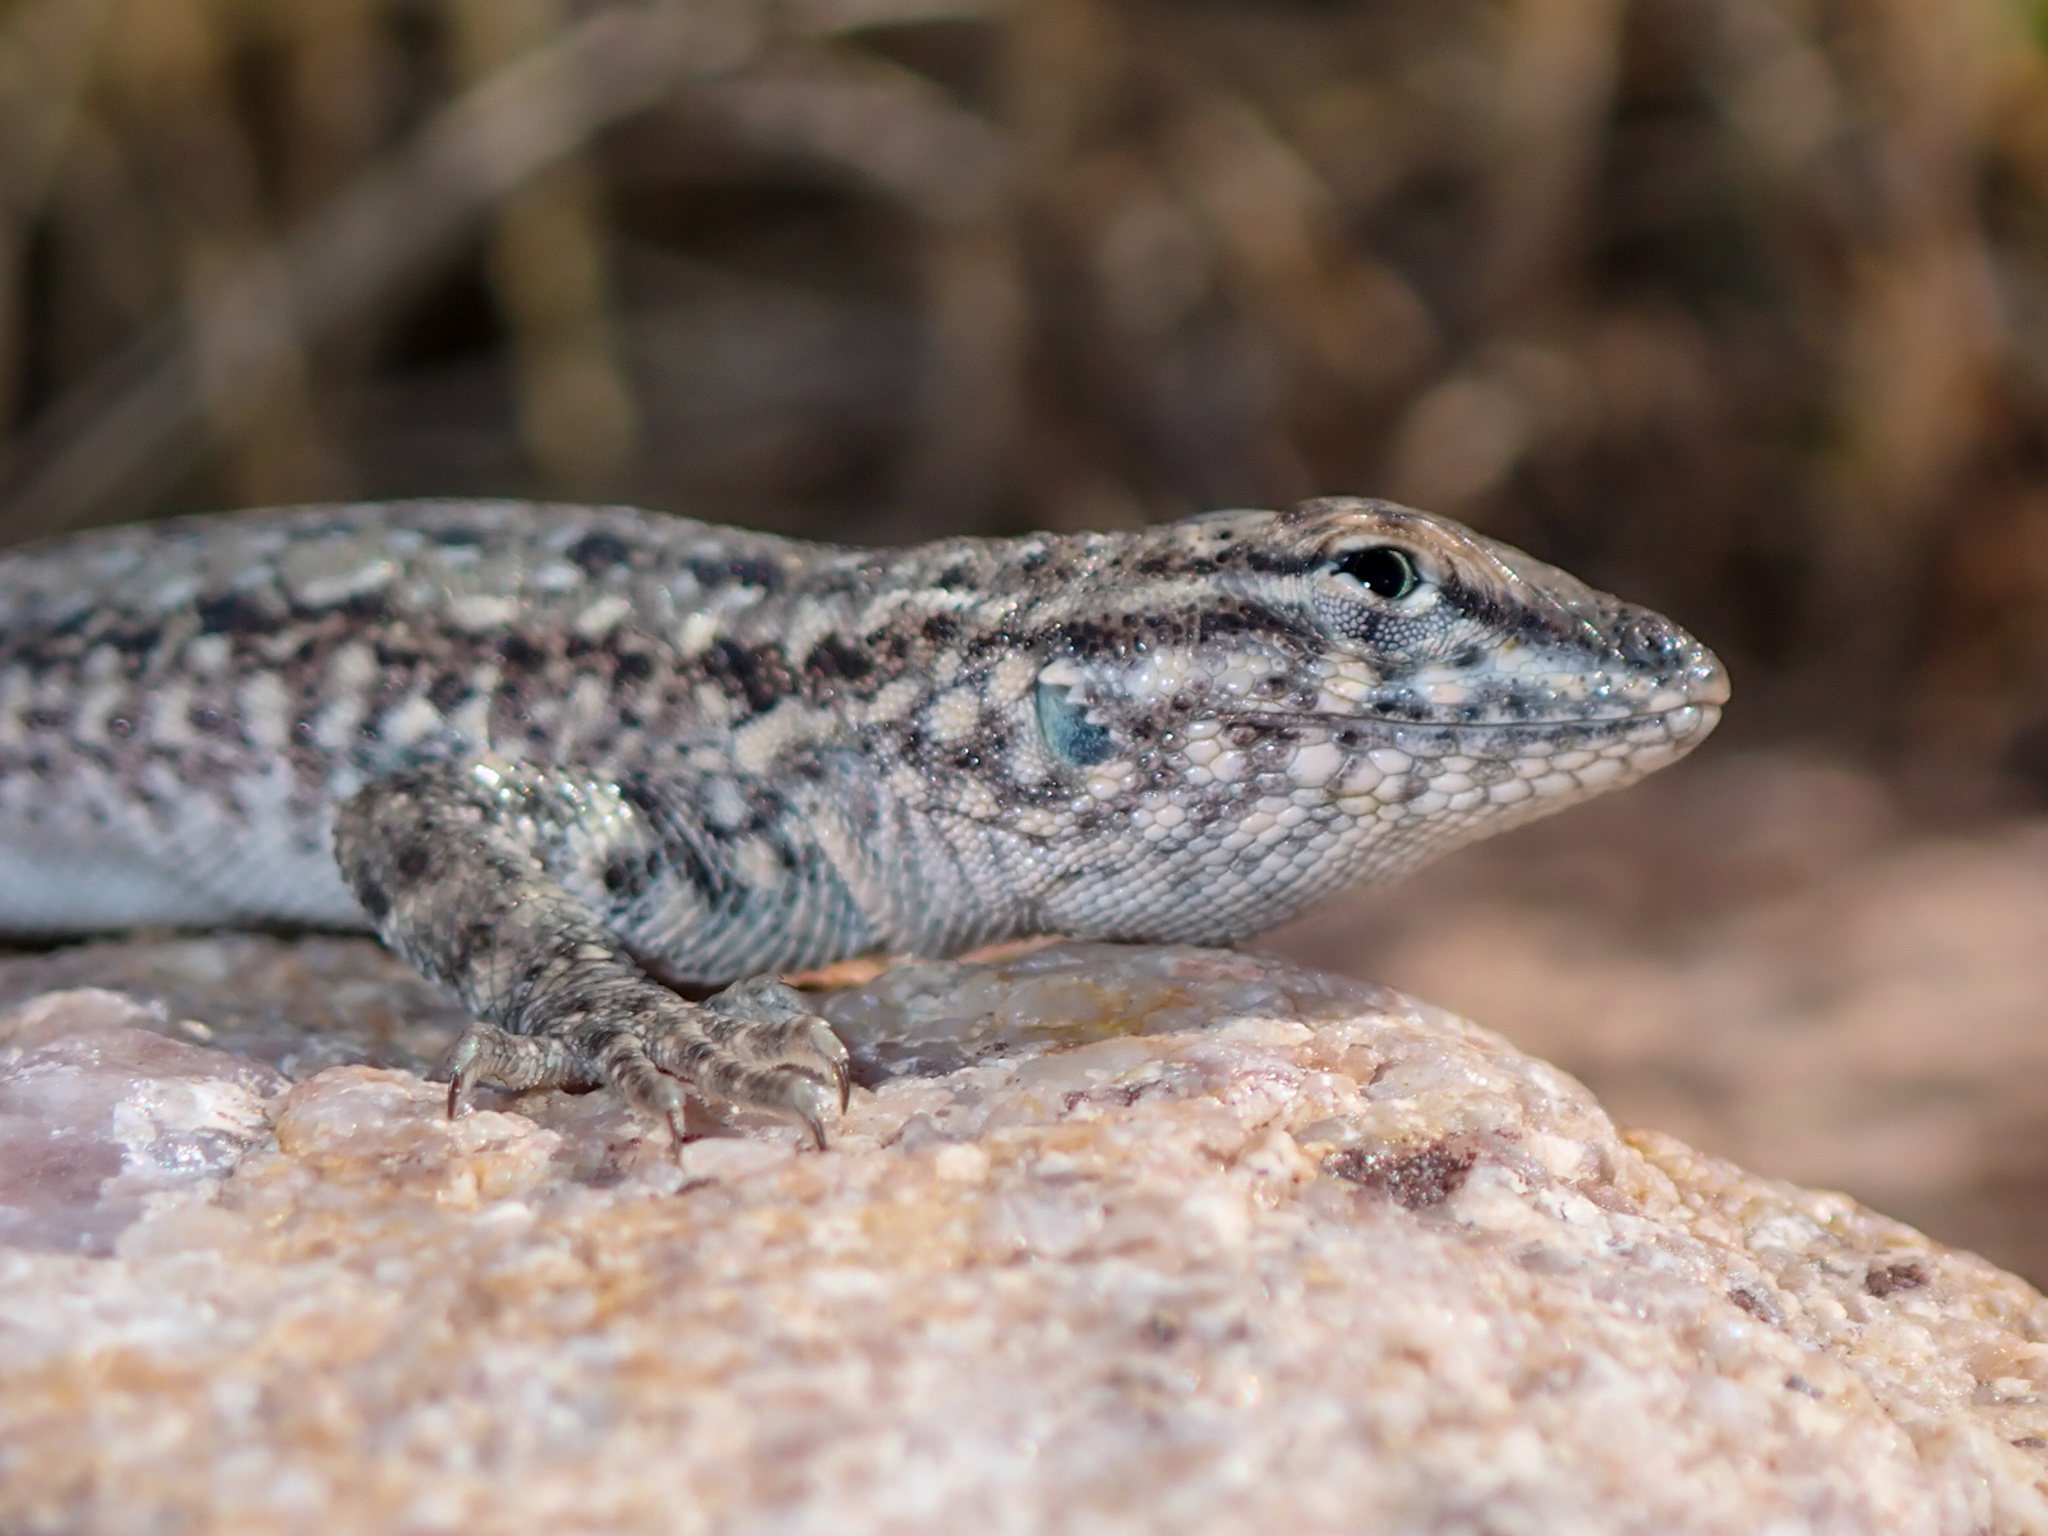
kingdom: Animalia
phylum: Chordata
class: Squamata
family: Phrynosomatidae
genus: Uta
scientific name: Uta stansburiana
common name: Side-blotched lizard
